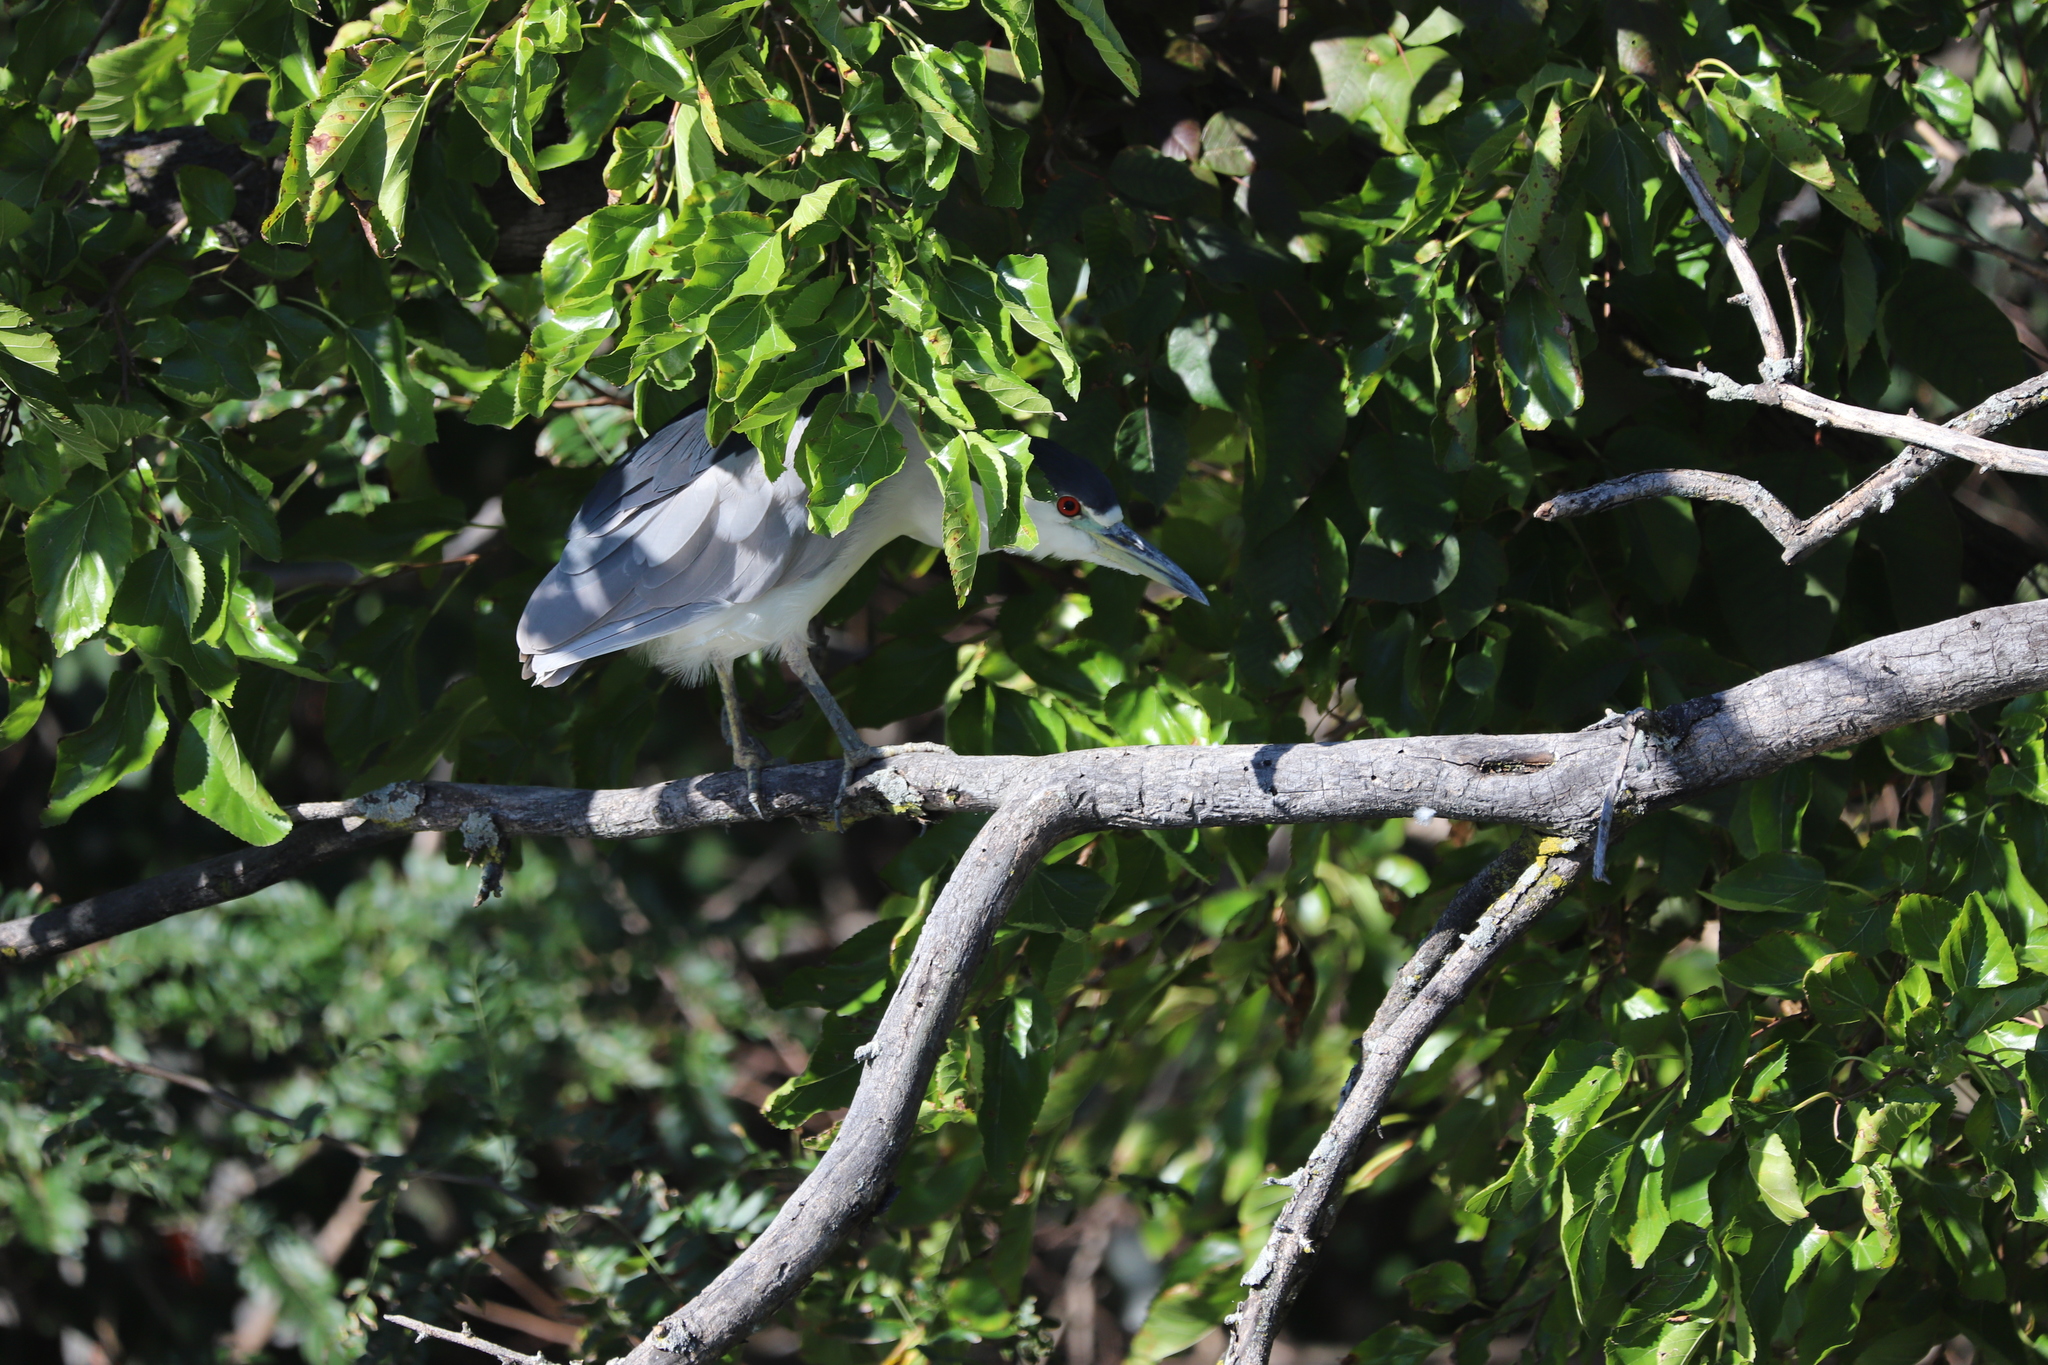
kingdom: Animalia
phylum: Chordata
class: Aves
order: Pelecaniformes
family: Ardeidae
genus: Nycticorax
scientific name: Nycticorax nycticorax
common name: Black-crowned night heron
